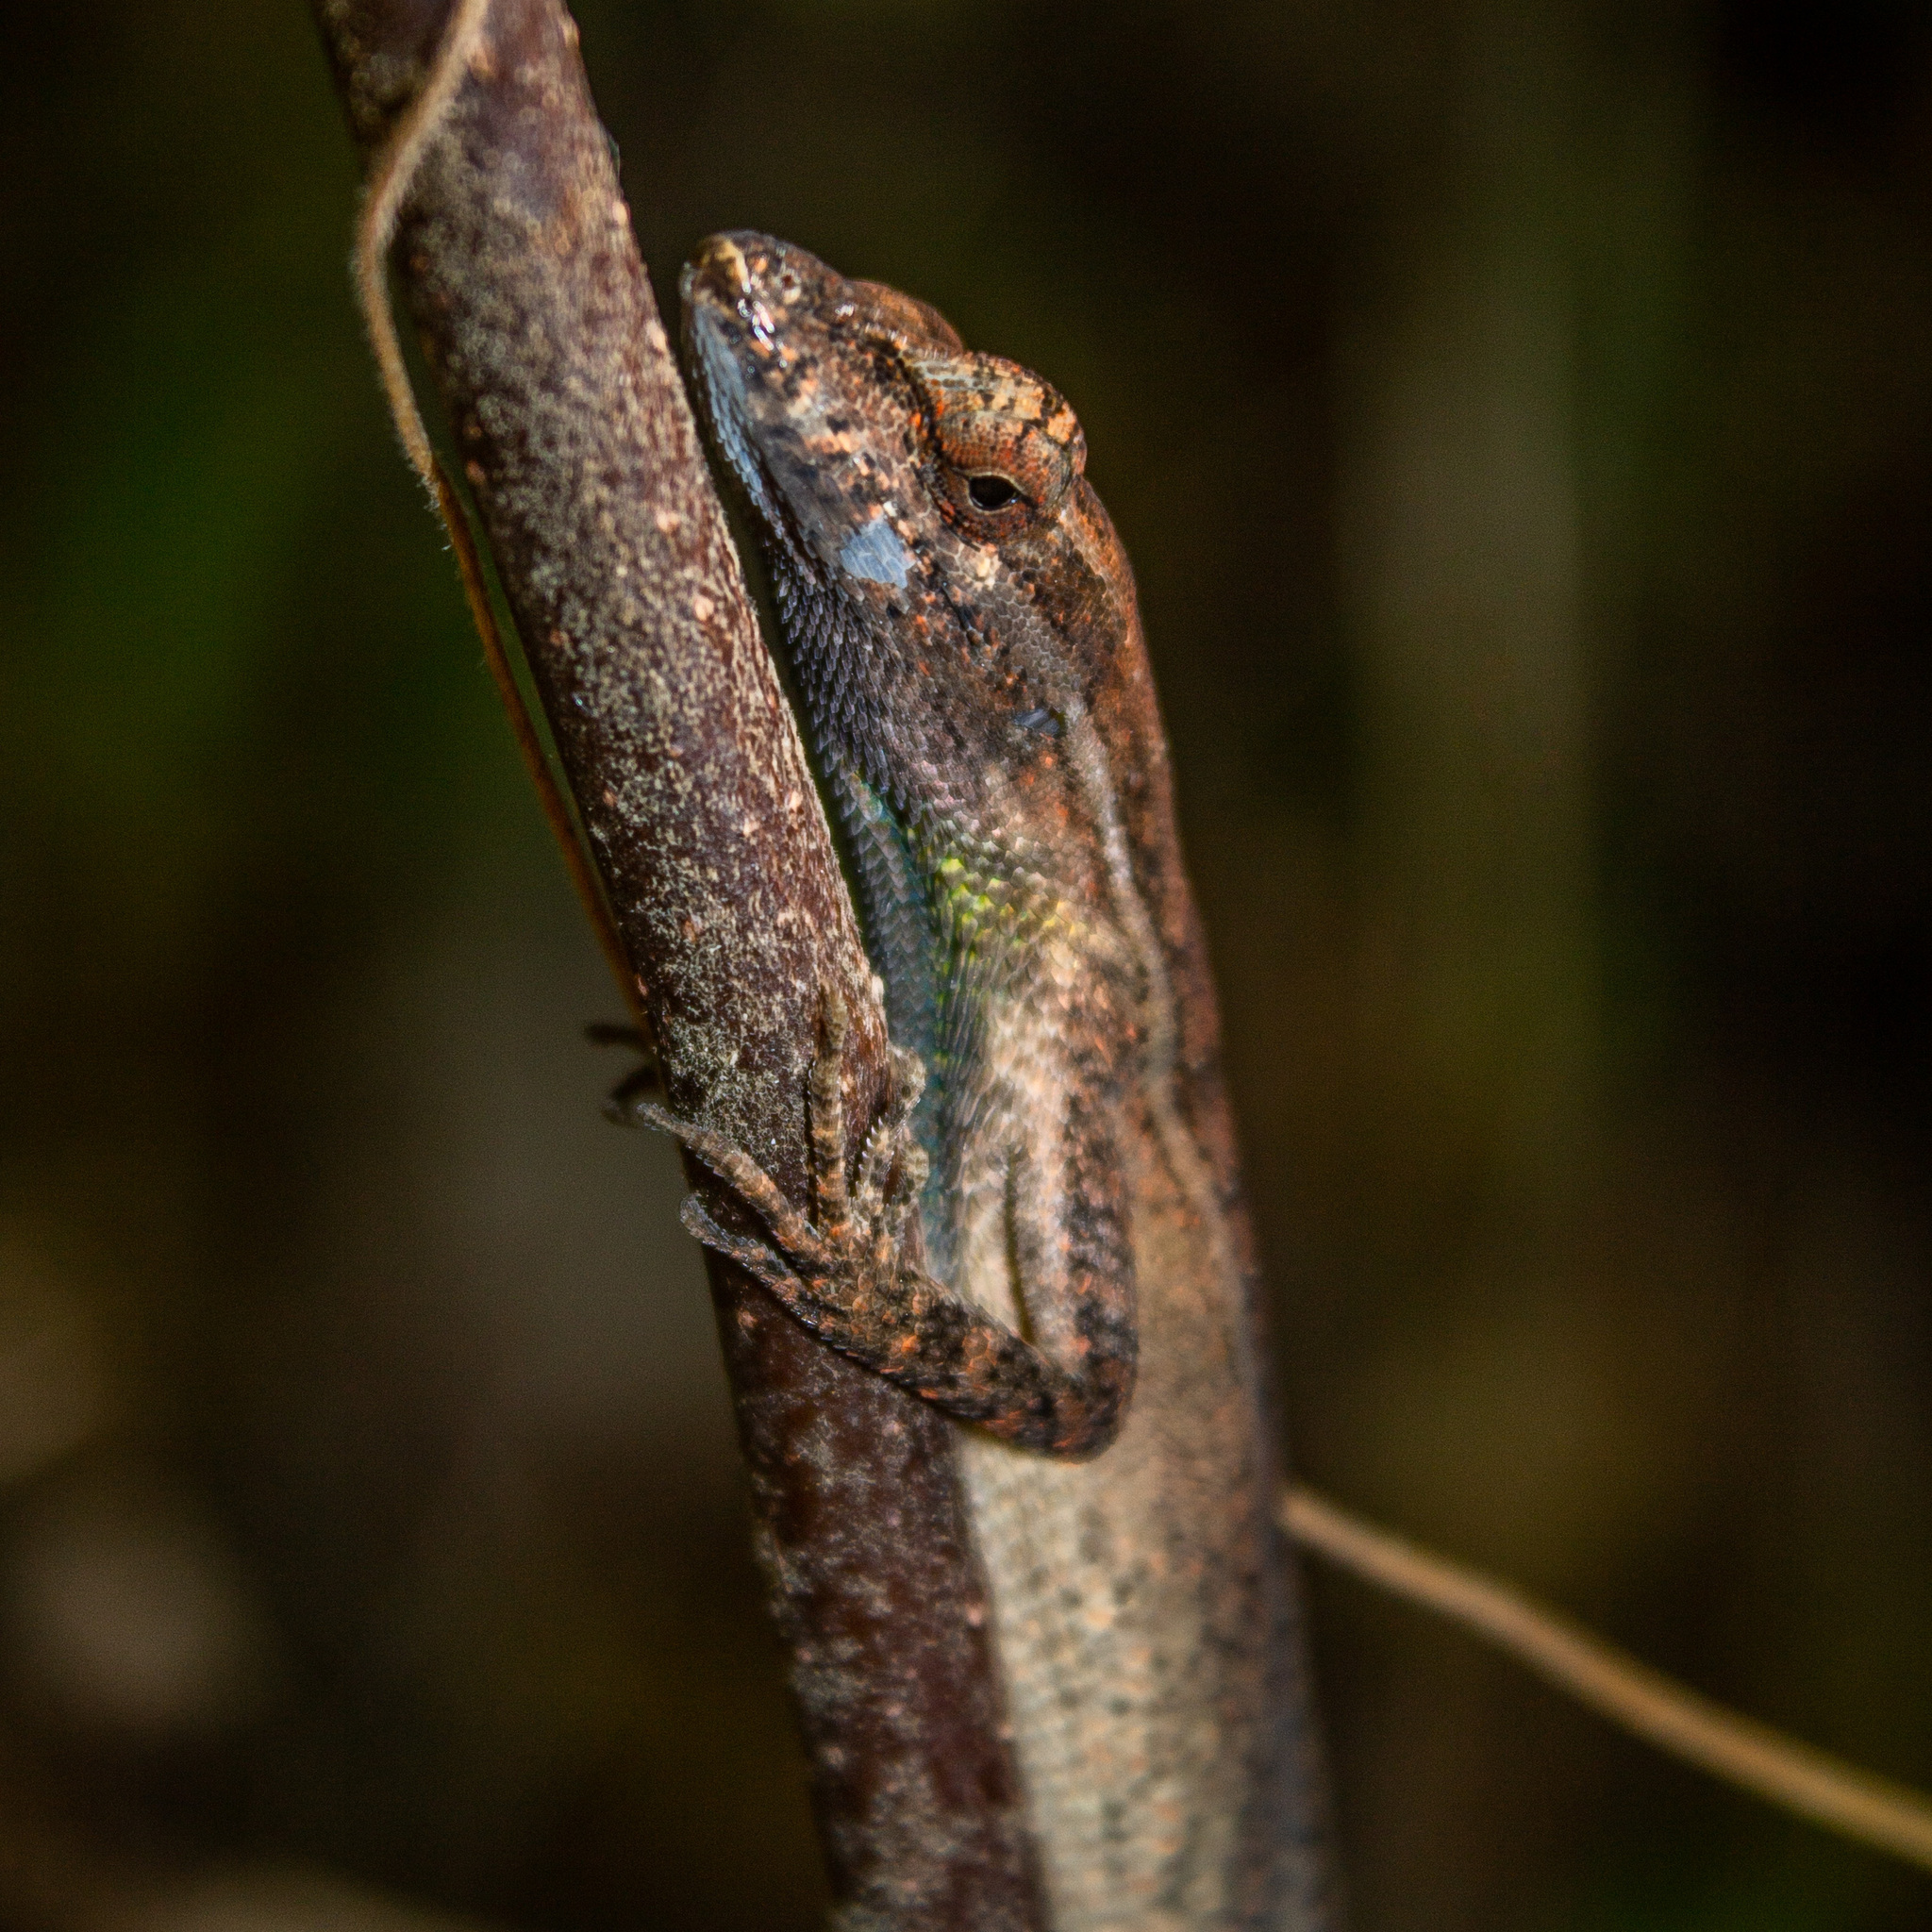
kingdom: Animalia
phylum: Chordata
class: Squamata
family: Dactyloidae
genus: Anolis
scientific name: Anolis auratus
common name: Grass anole
